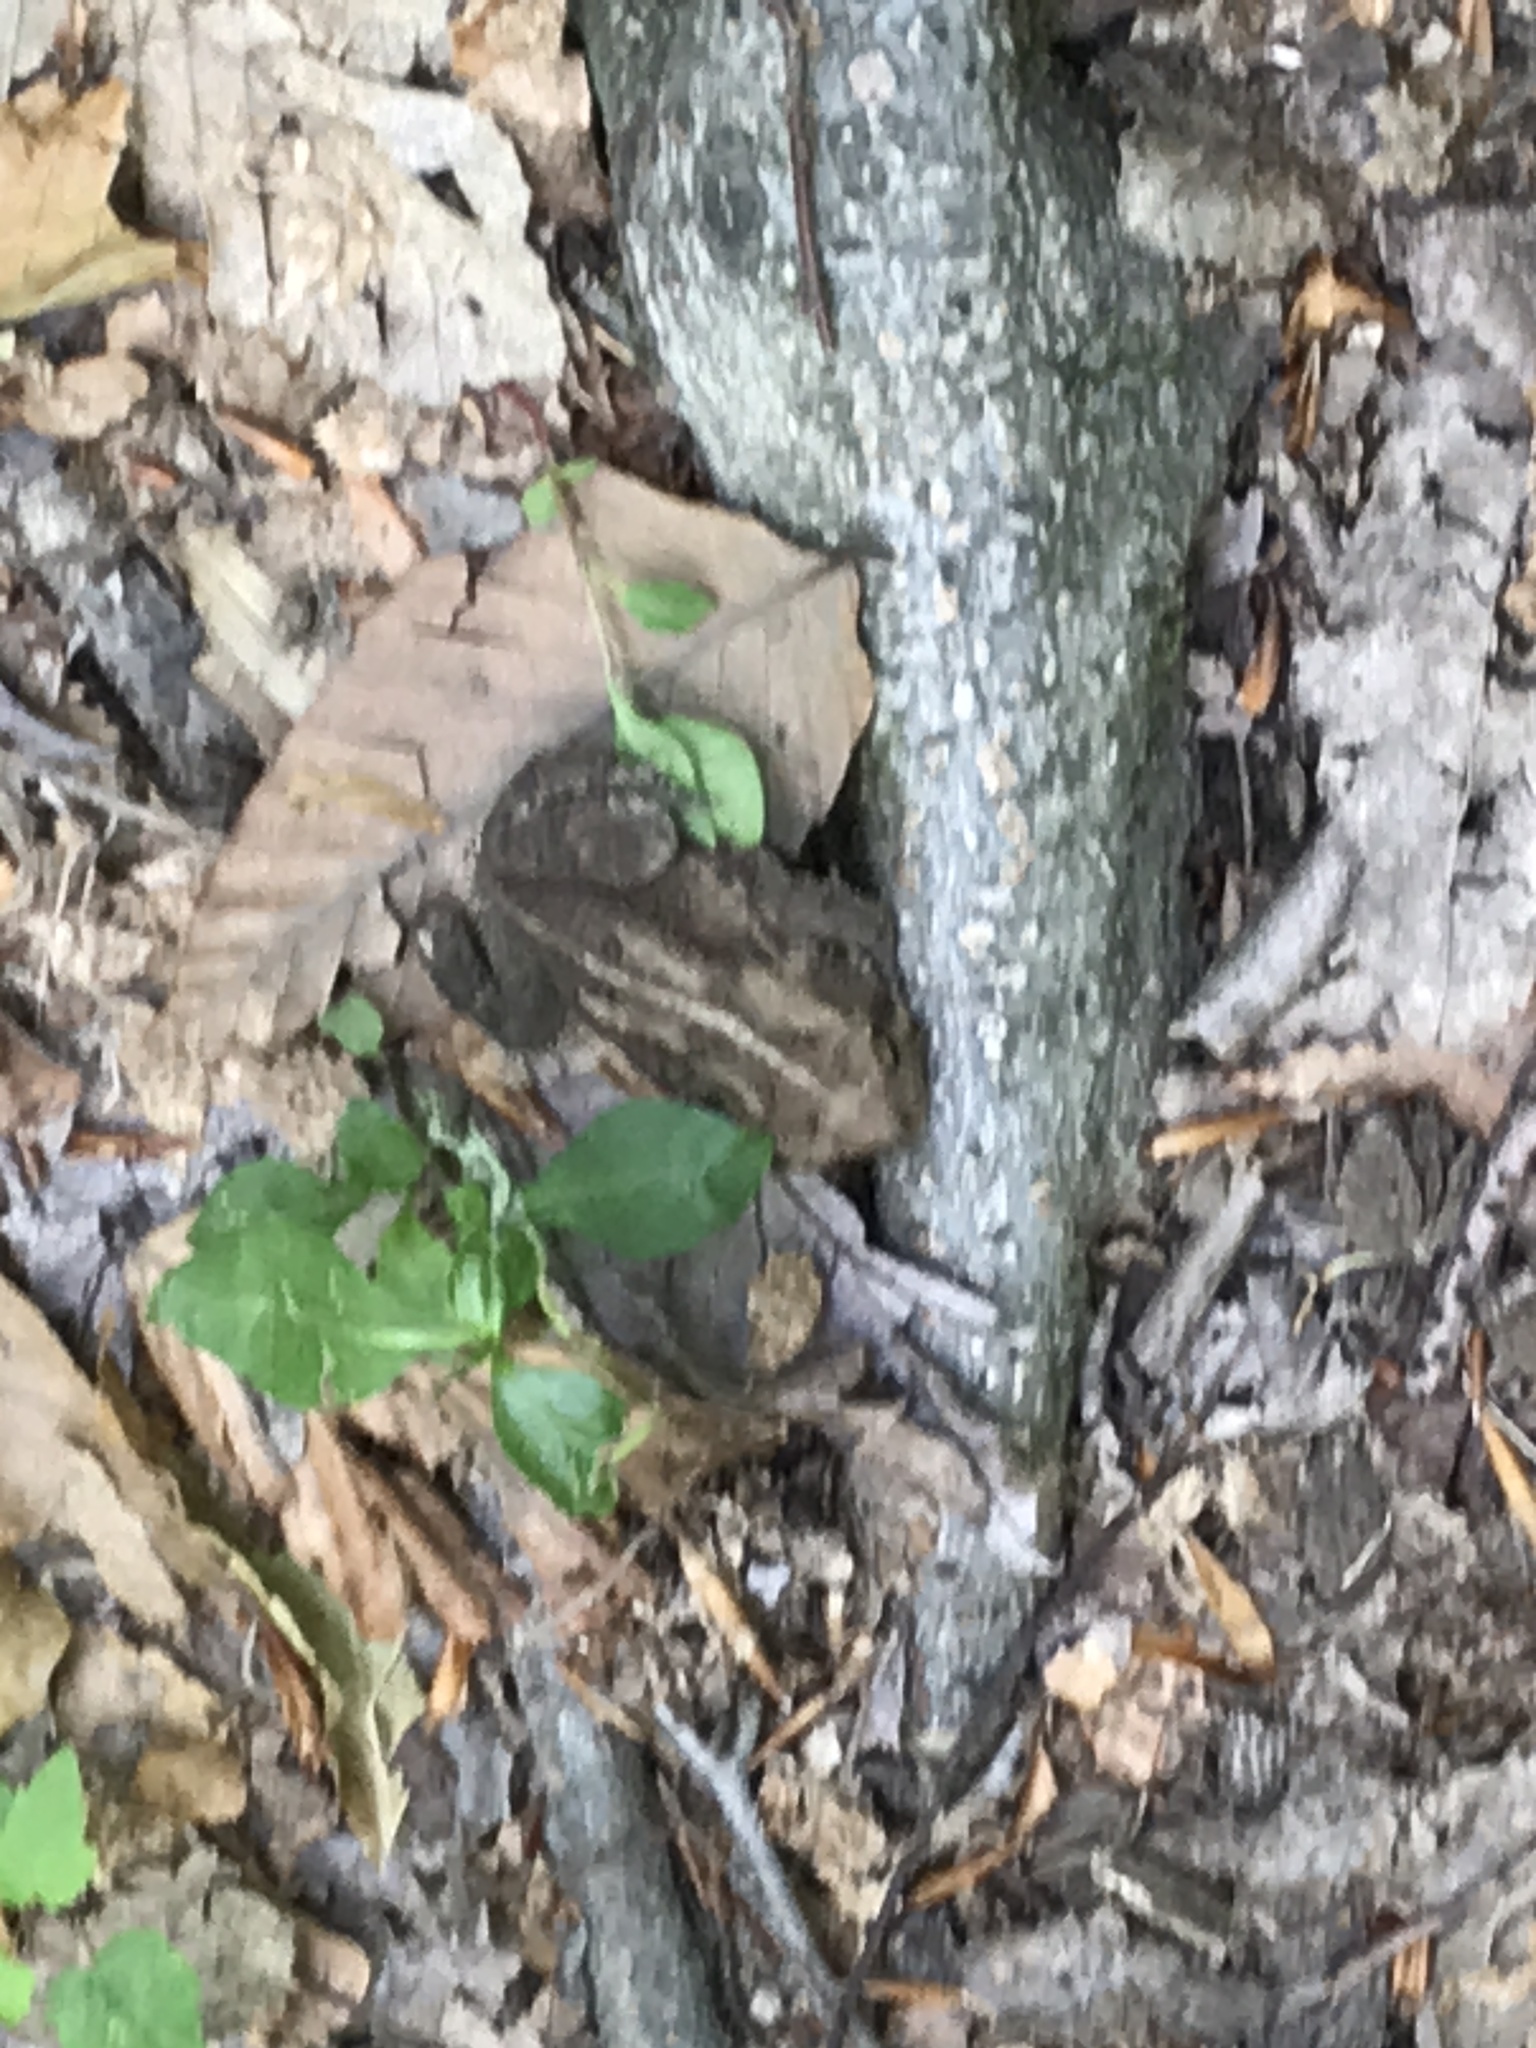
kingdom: Animalia
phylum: Chordata
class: Amphibia
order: Anura
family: Bufonidae
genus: Anaxyrus
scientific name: Anaxyrus americanus
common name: American toad
